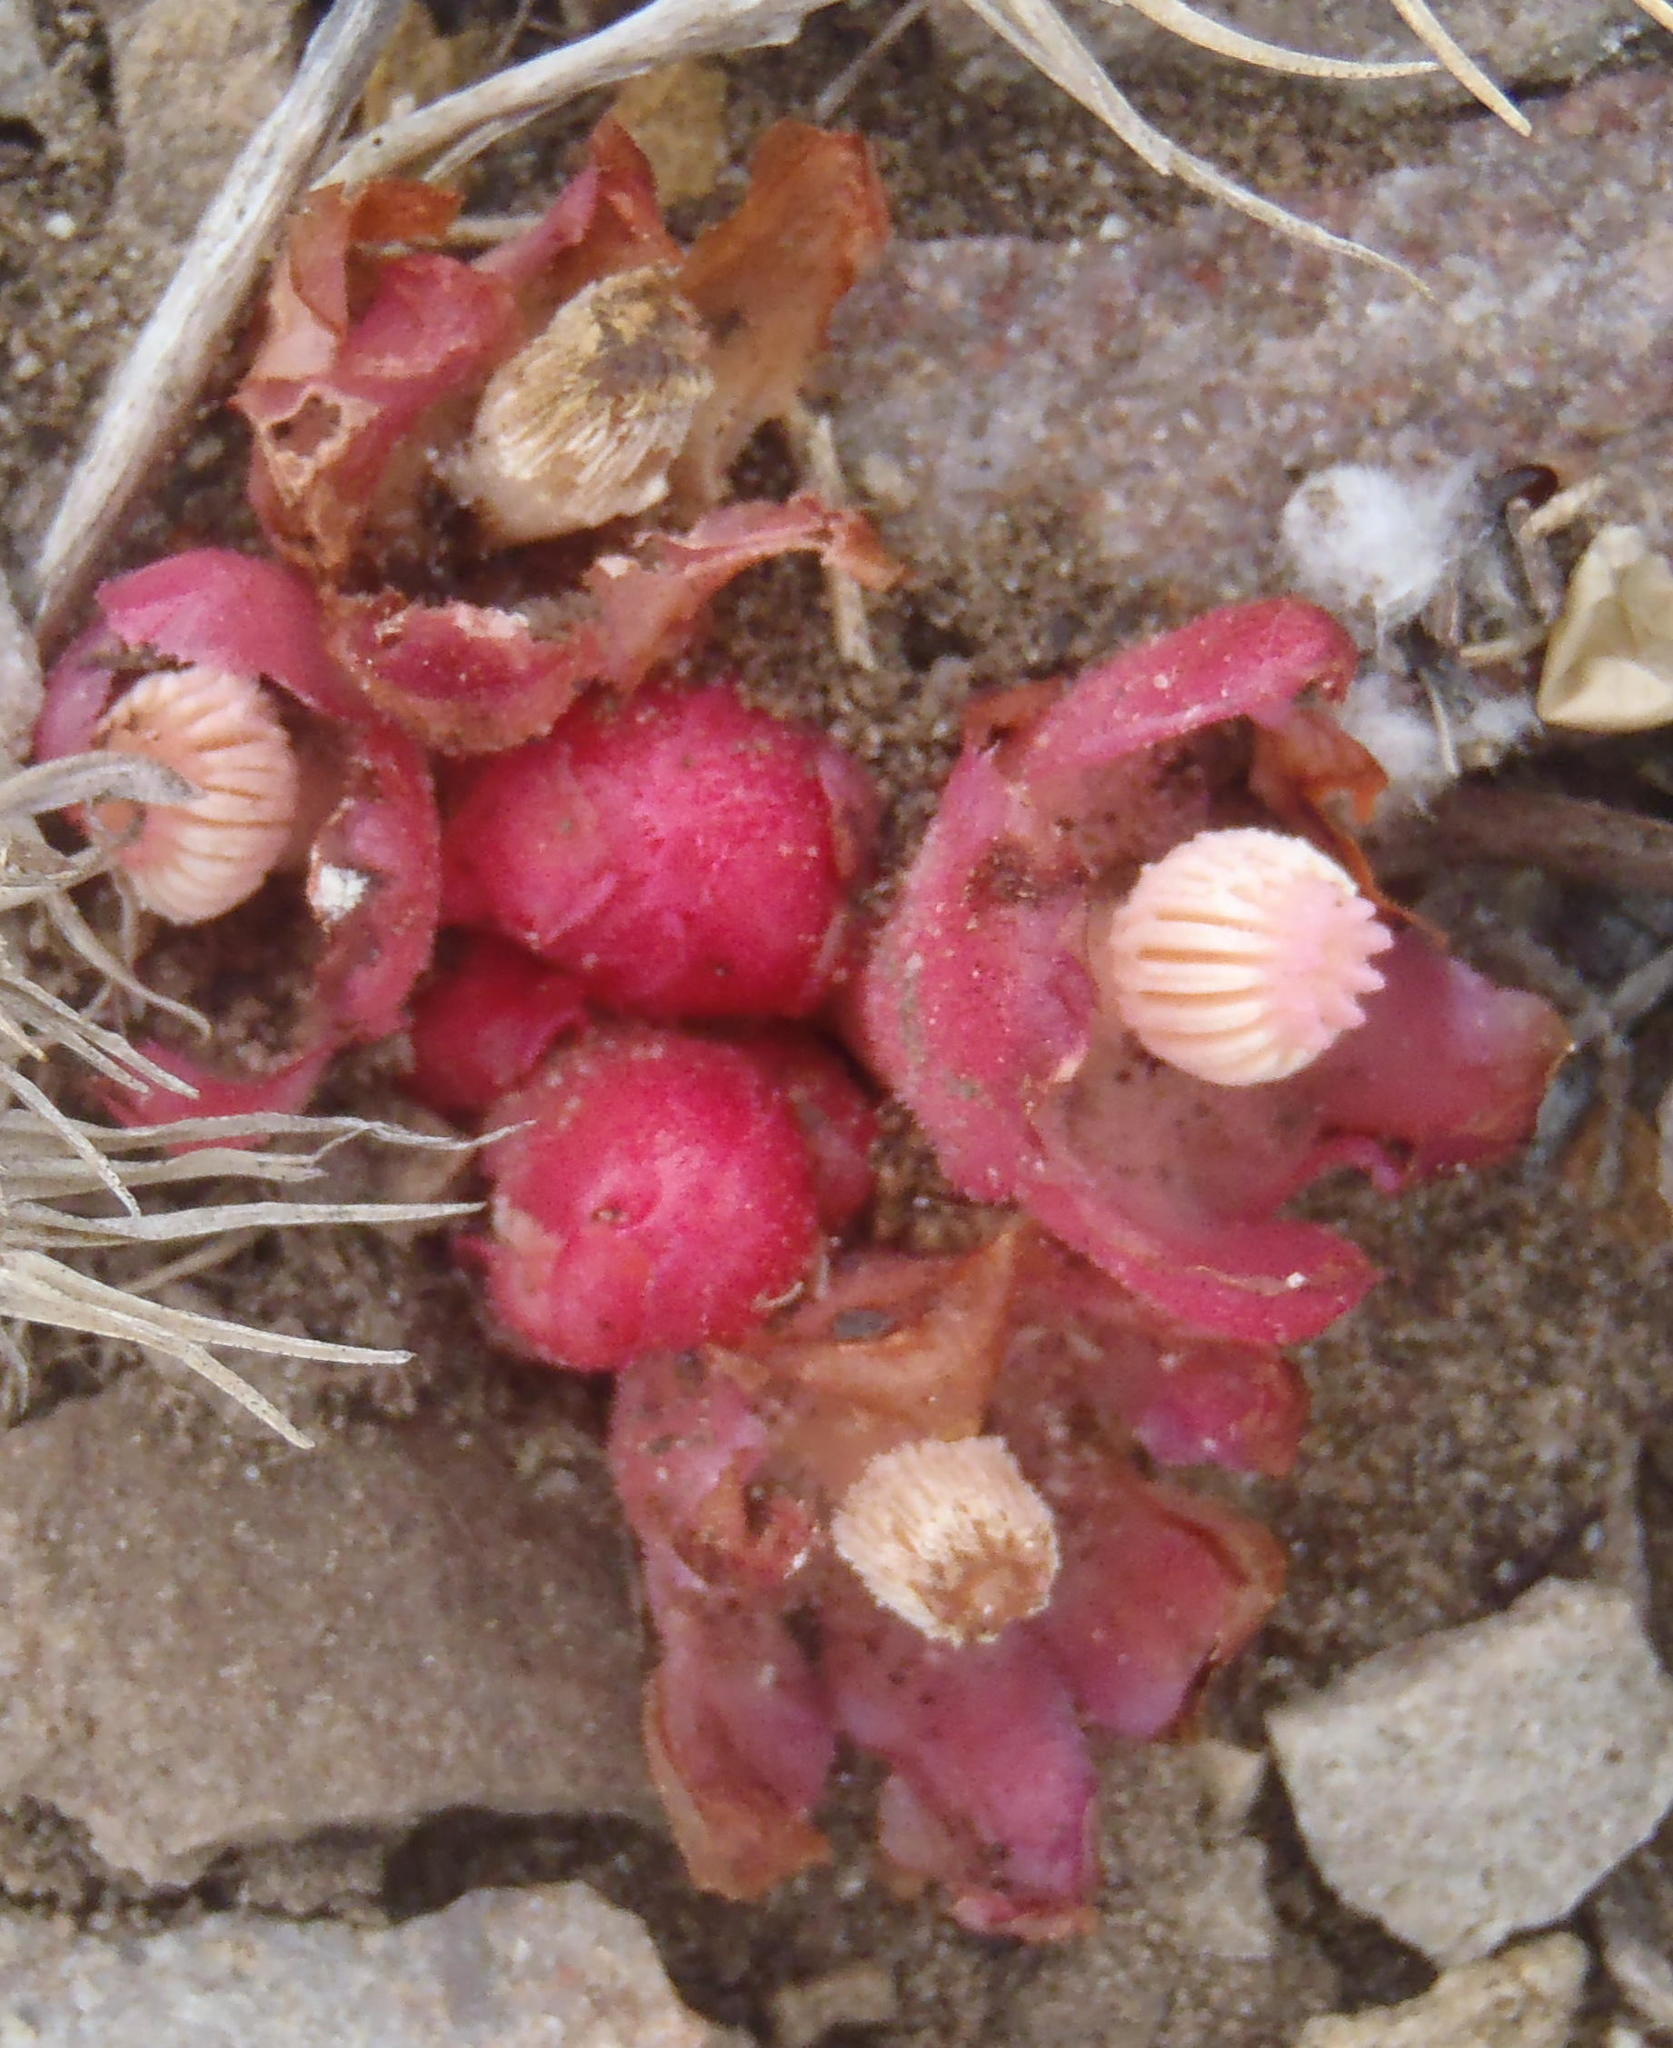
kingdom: Plantae
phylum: Tracheophyta
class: Magnoliopsida
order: Malvales
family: Cytinaceae
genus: Cytinus
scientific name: Cytinus sanguineus
